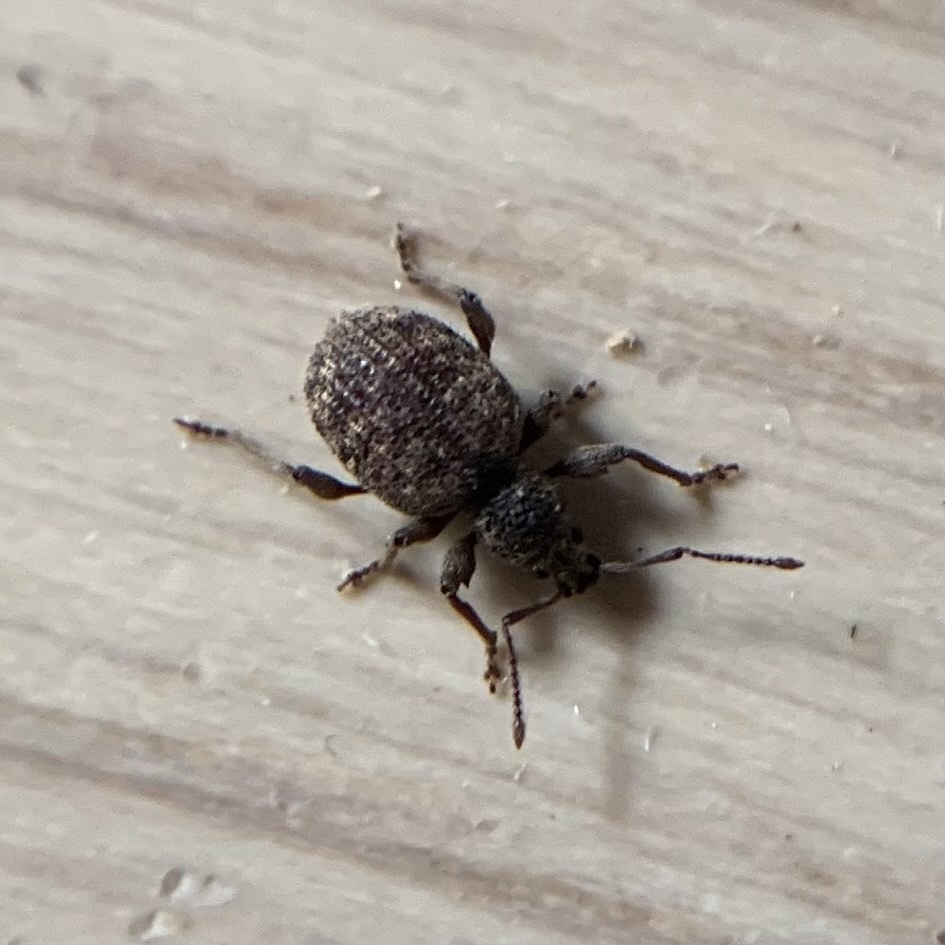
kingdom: Animalia
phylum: Arthropoda
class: Insecta
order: Coleoptera
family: Curculionidae
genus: Otiorhynchus
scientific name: Otiorhynchus crataegi
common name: Privet weevil
